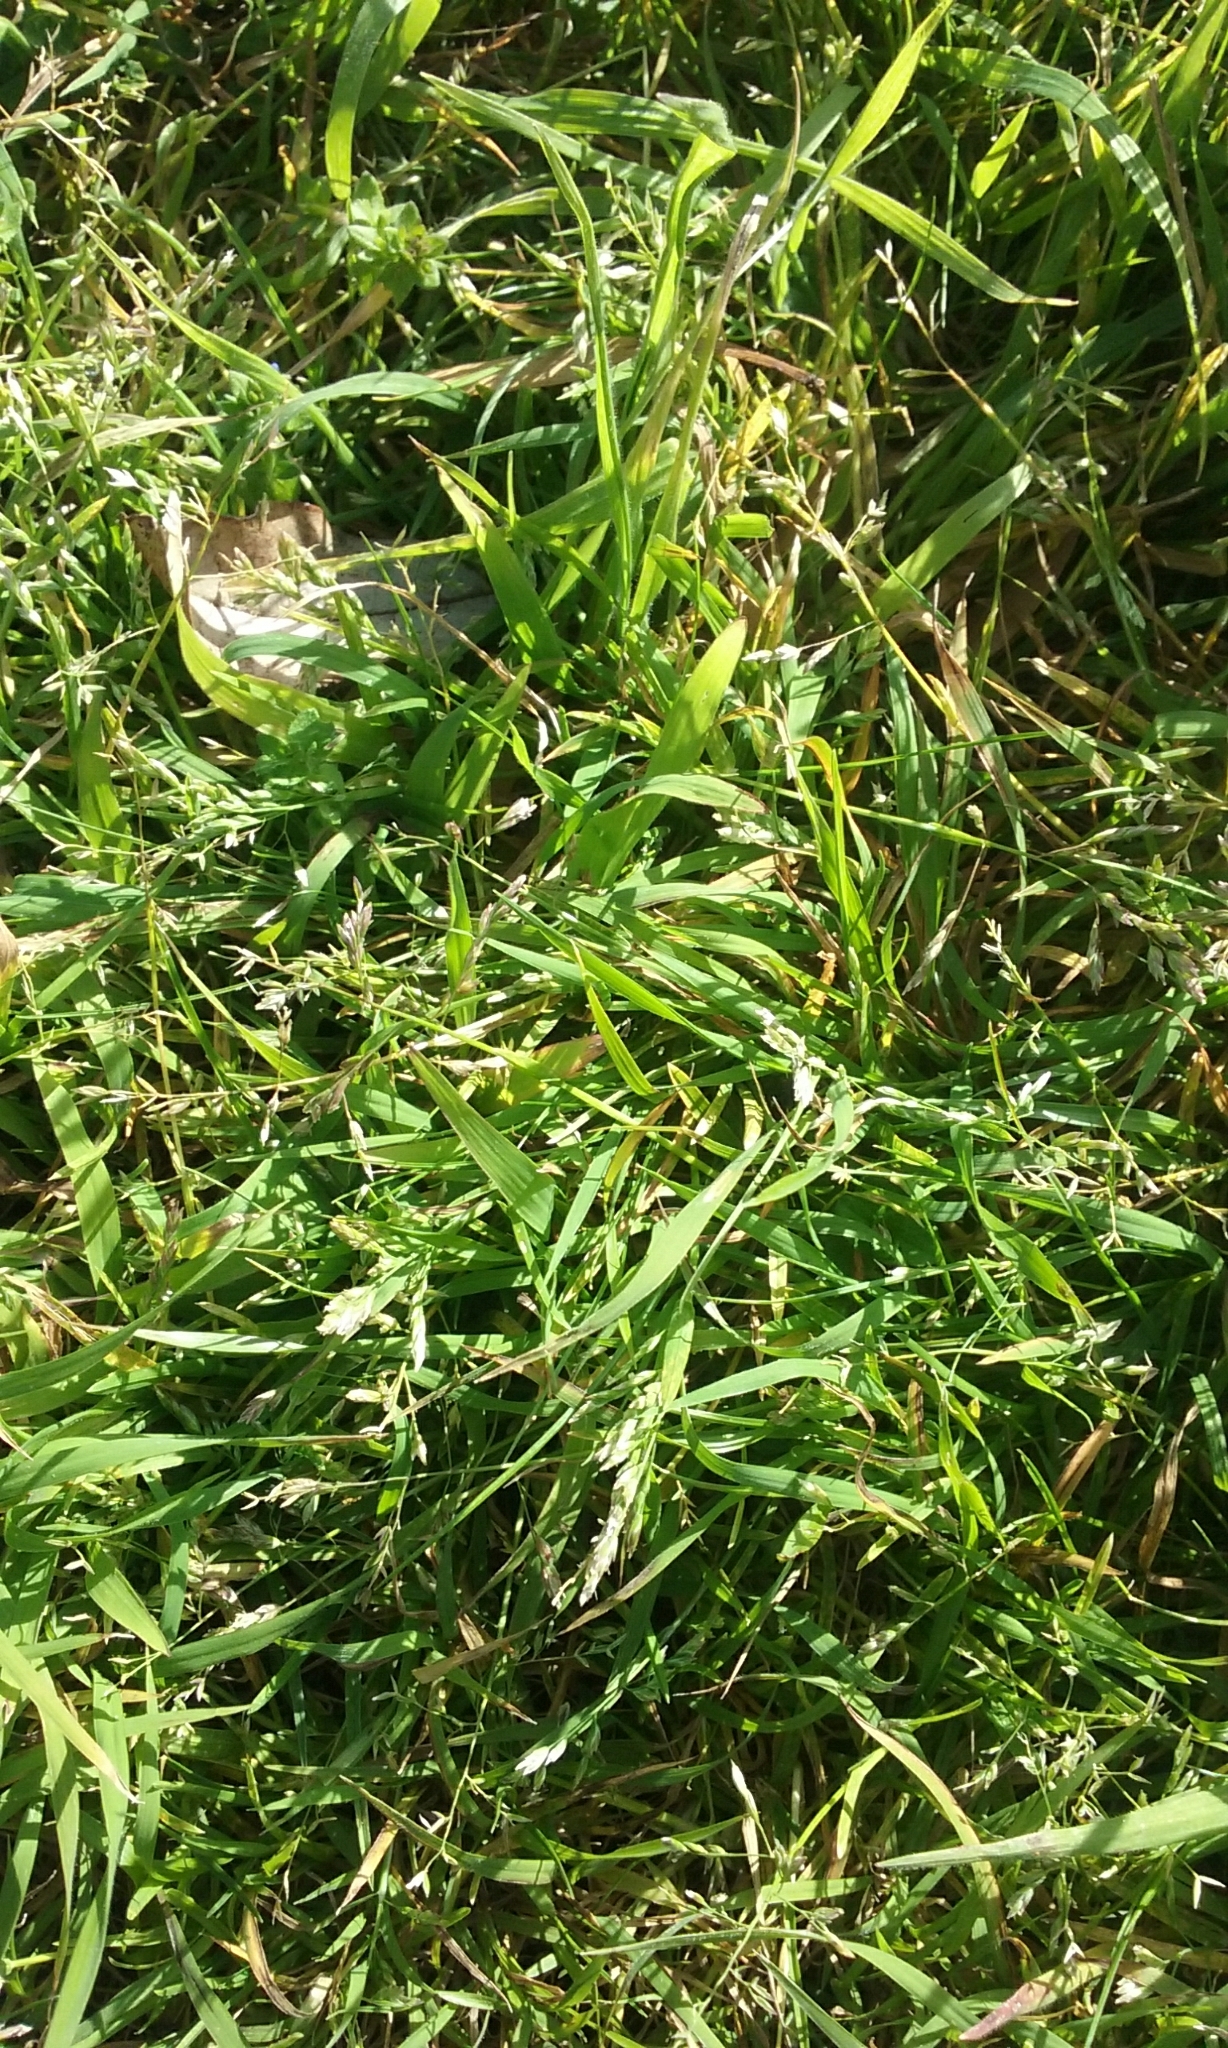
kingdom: Plantae
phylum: Tracheophyta
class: Liliopsida
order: Poales
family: Poaceae
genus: Poa
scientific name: Poa annua
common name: Annual bluegrass
